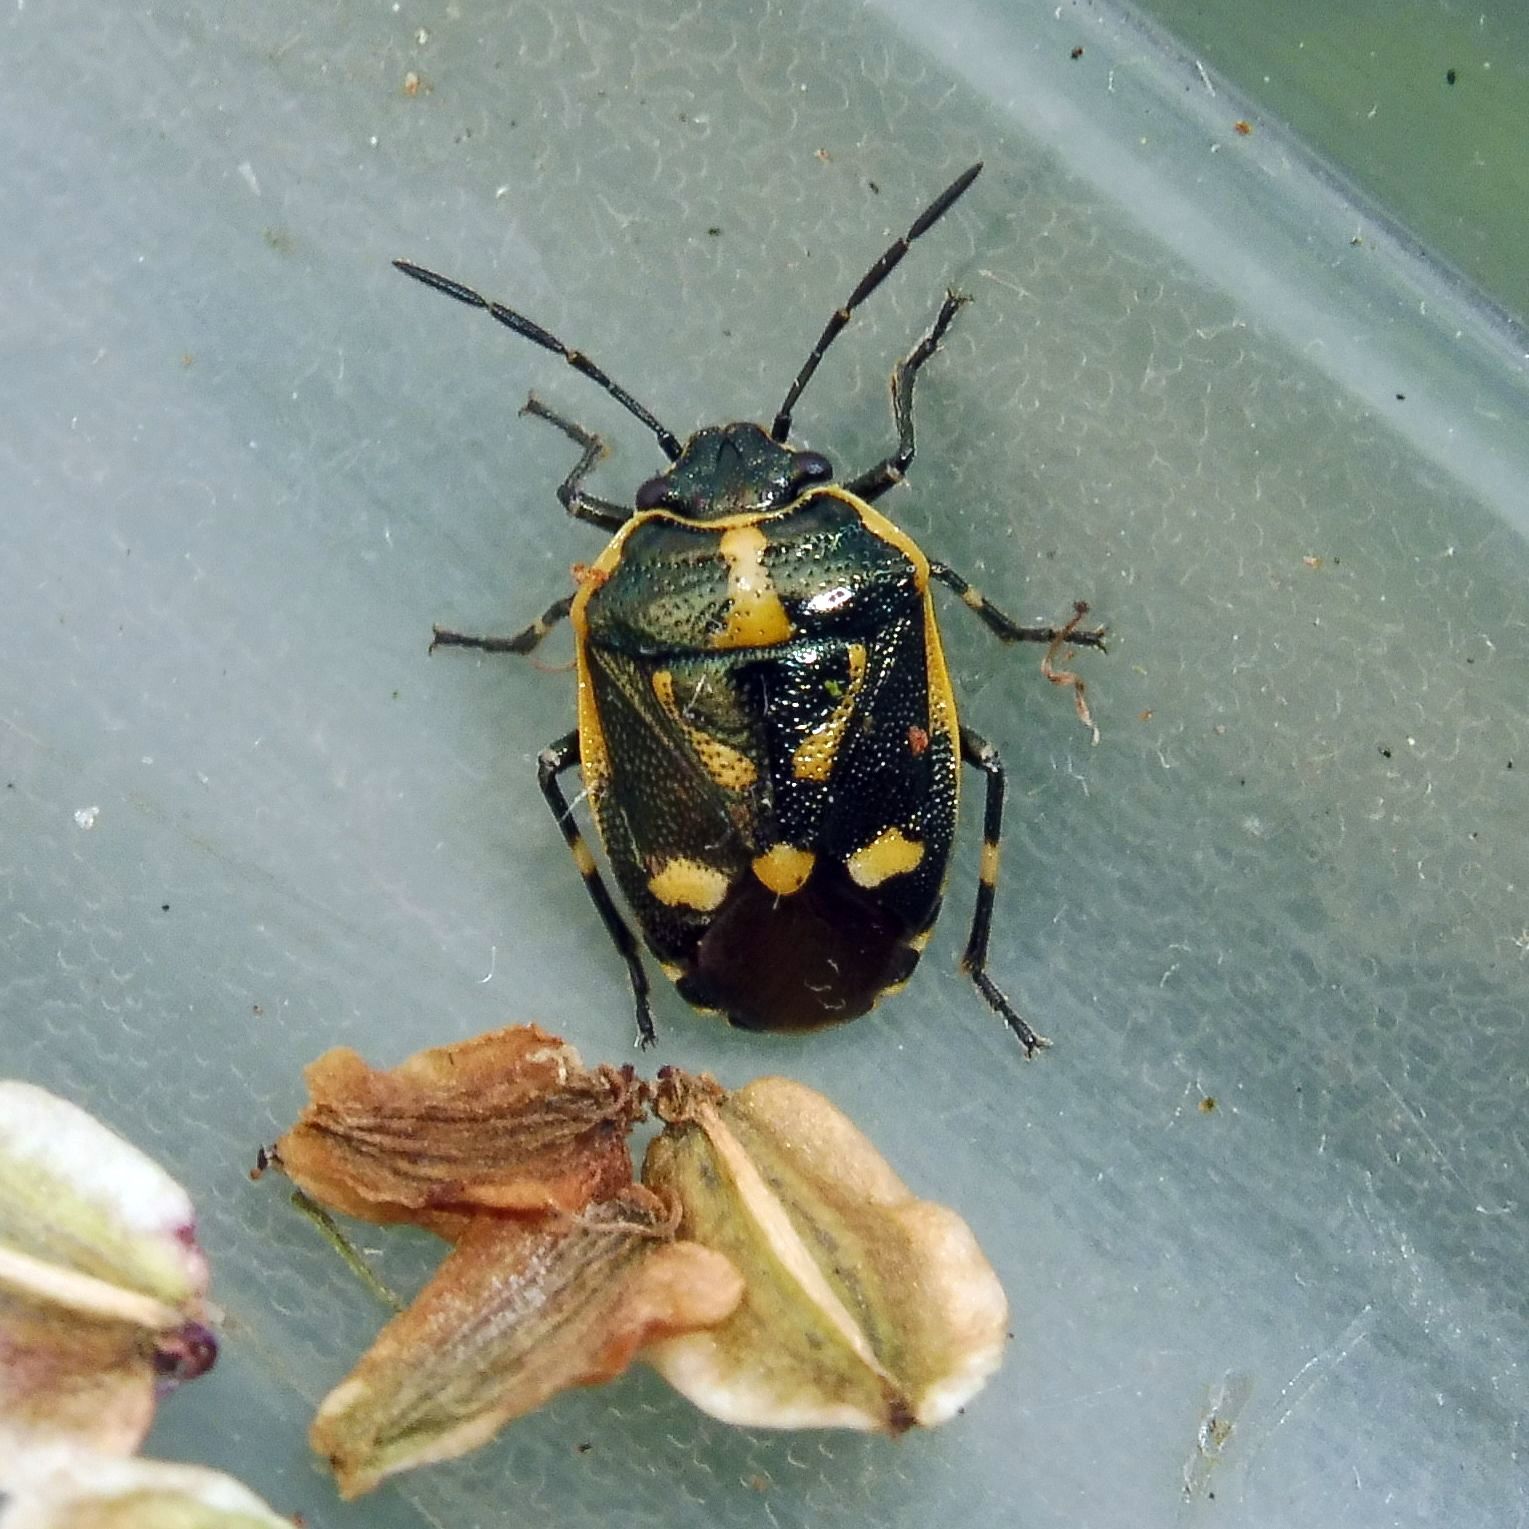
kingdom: Animalia
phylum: Arthropoda
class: Insecta
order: Hemiptera
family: Pentatomidae
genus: Eurydema
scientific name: Eurydema oleracea
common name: Cabbage bug
